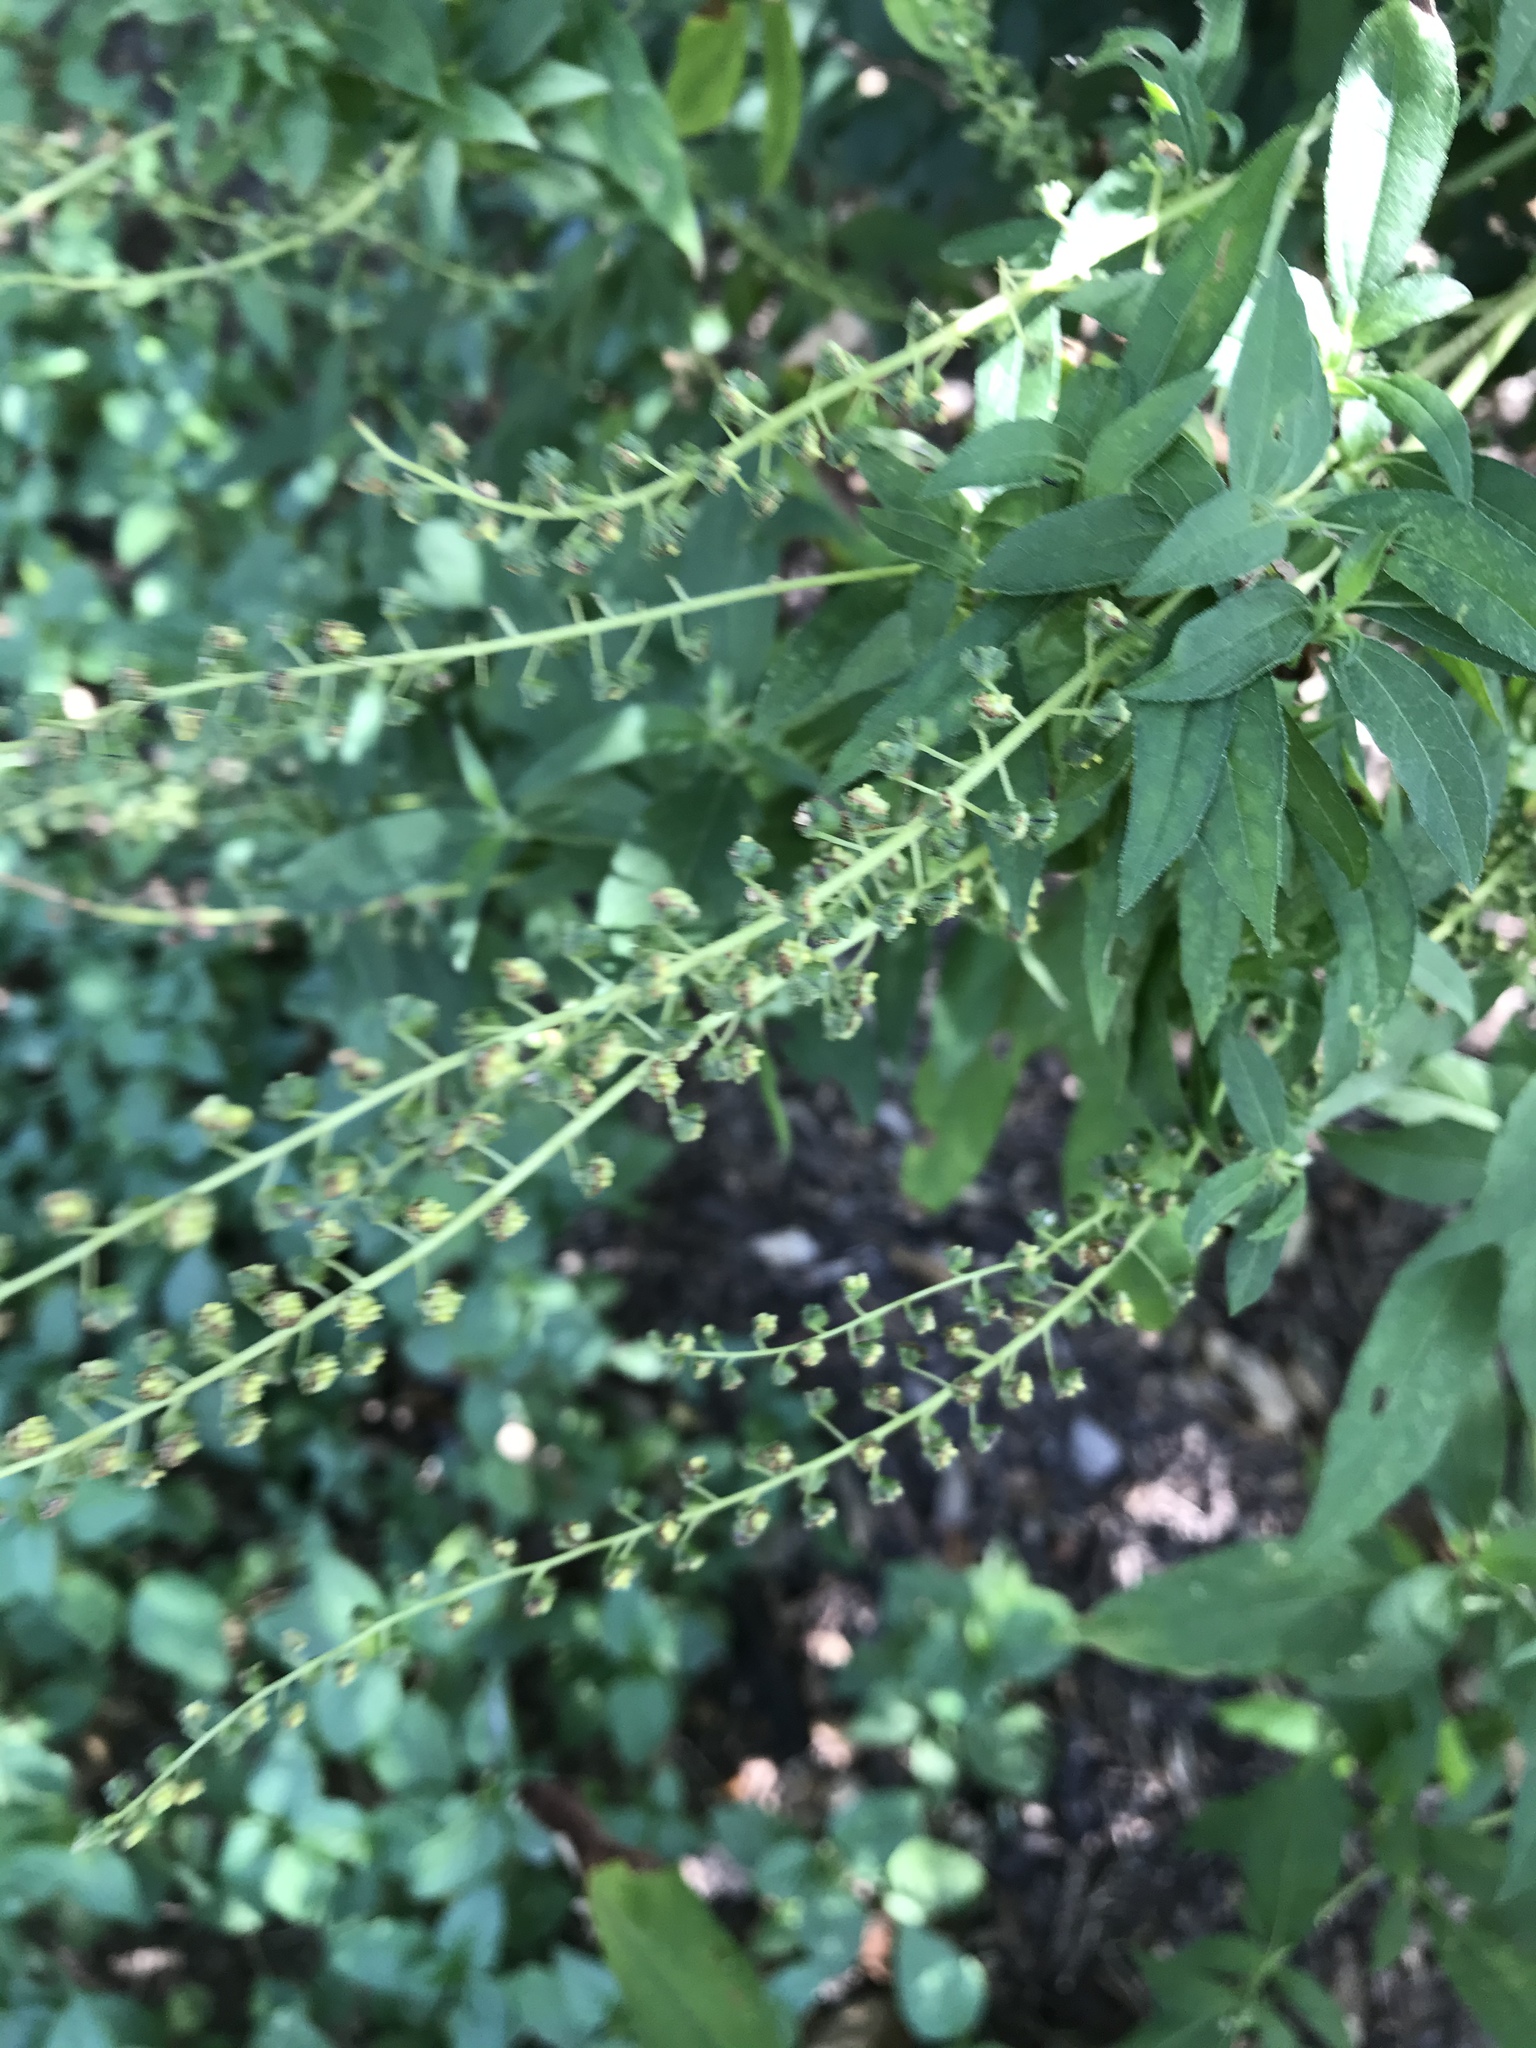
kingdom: Plantae
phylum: Tracheophyta
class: Magnoliopsida
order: Asterales
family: Asteraceae
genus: Ambrosia
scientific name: Ambrosia trifida
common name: Giant ragweed
